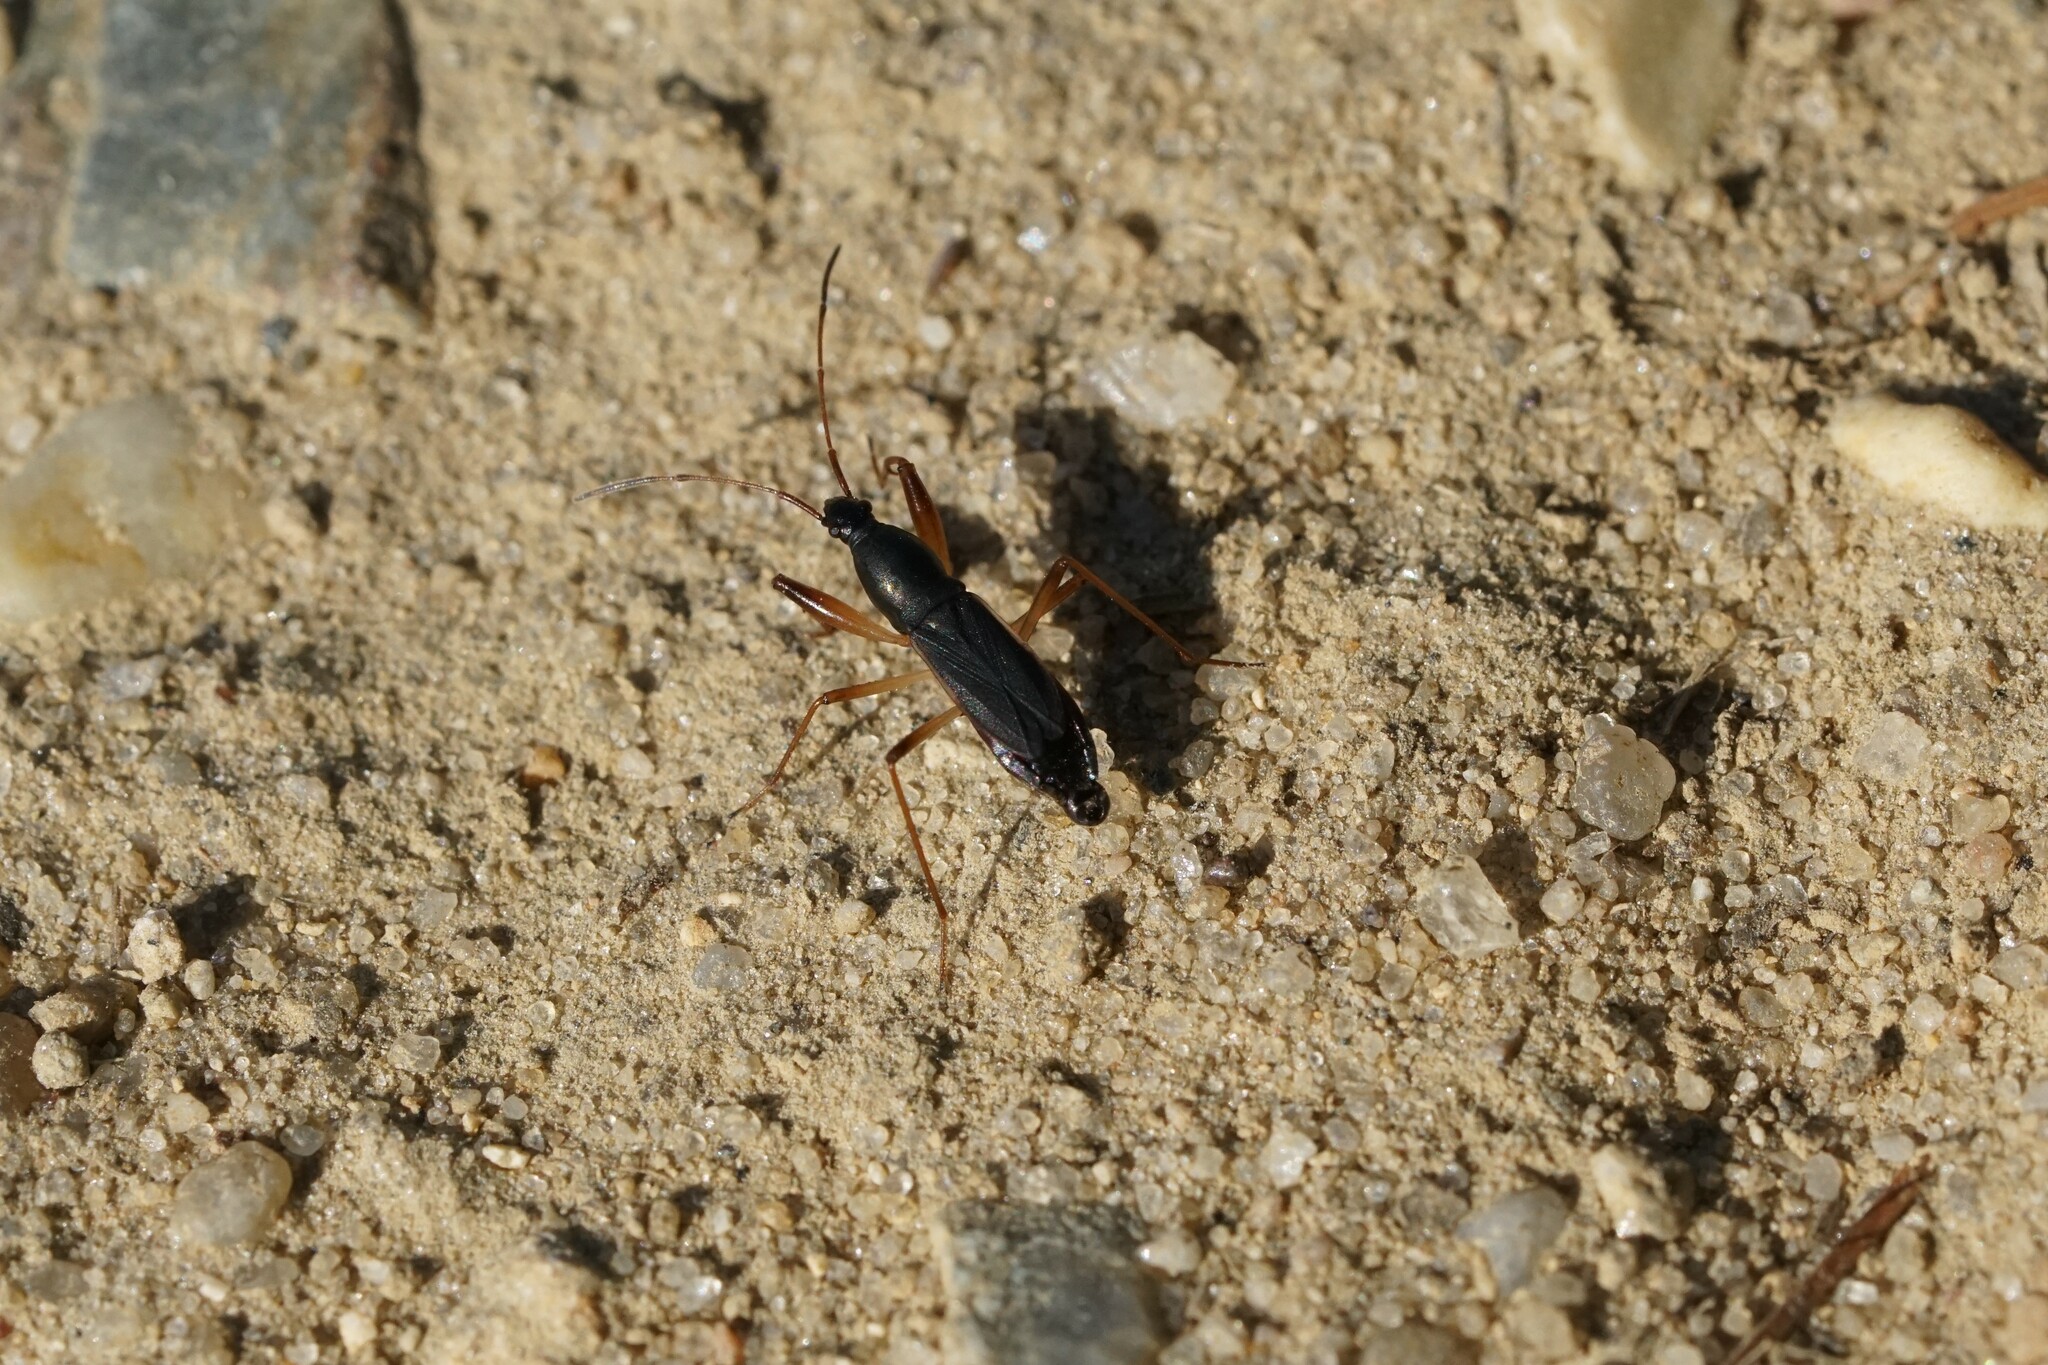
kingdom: Animalia
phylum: Arthropoda
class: Insecta
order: Hemiptera
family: Rhyparochromidae
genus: Cnemodus
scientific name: Cnemodus mavortius
